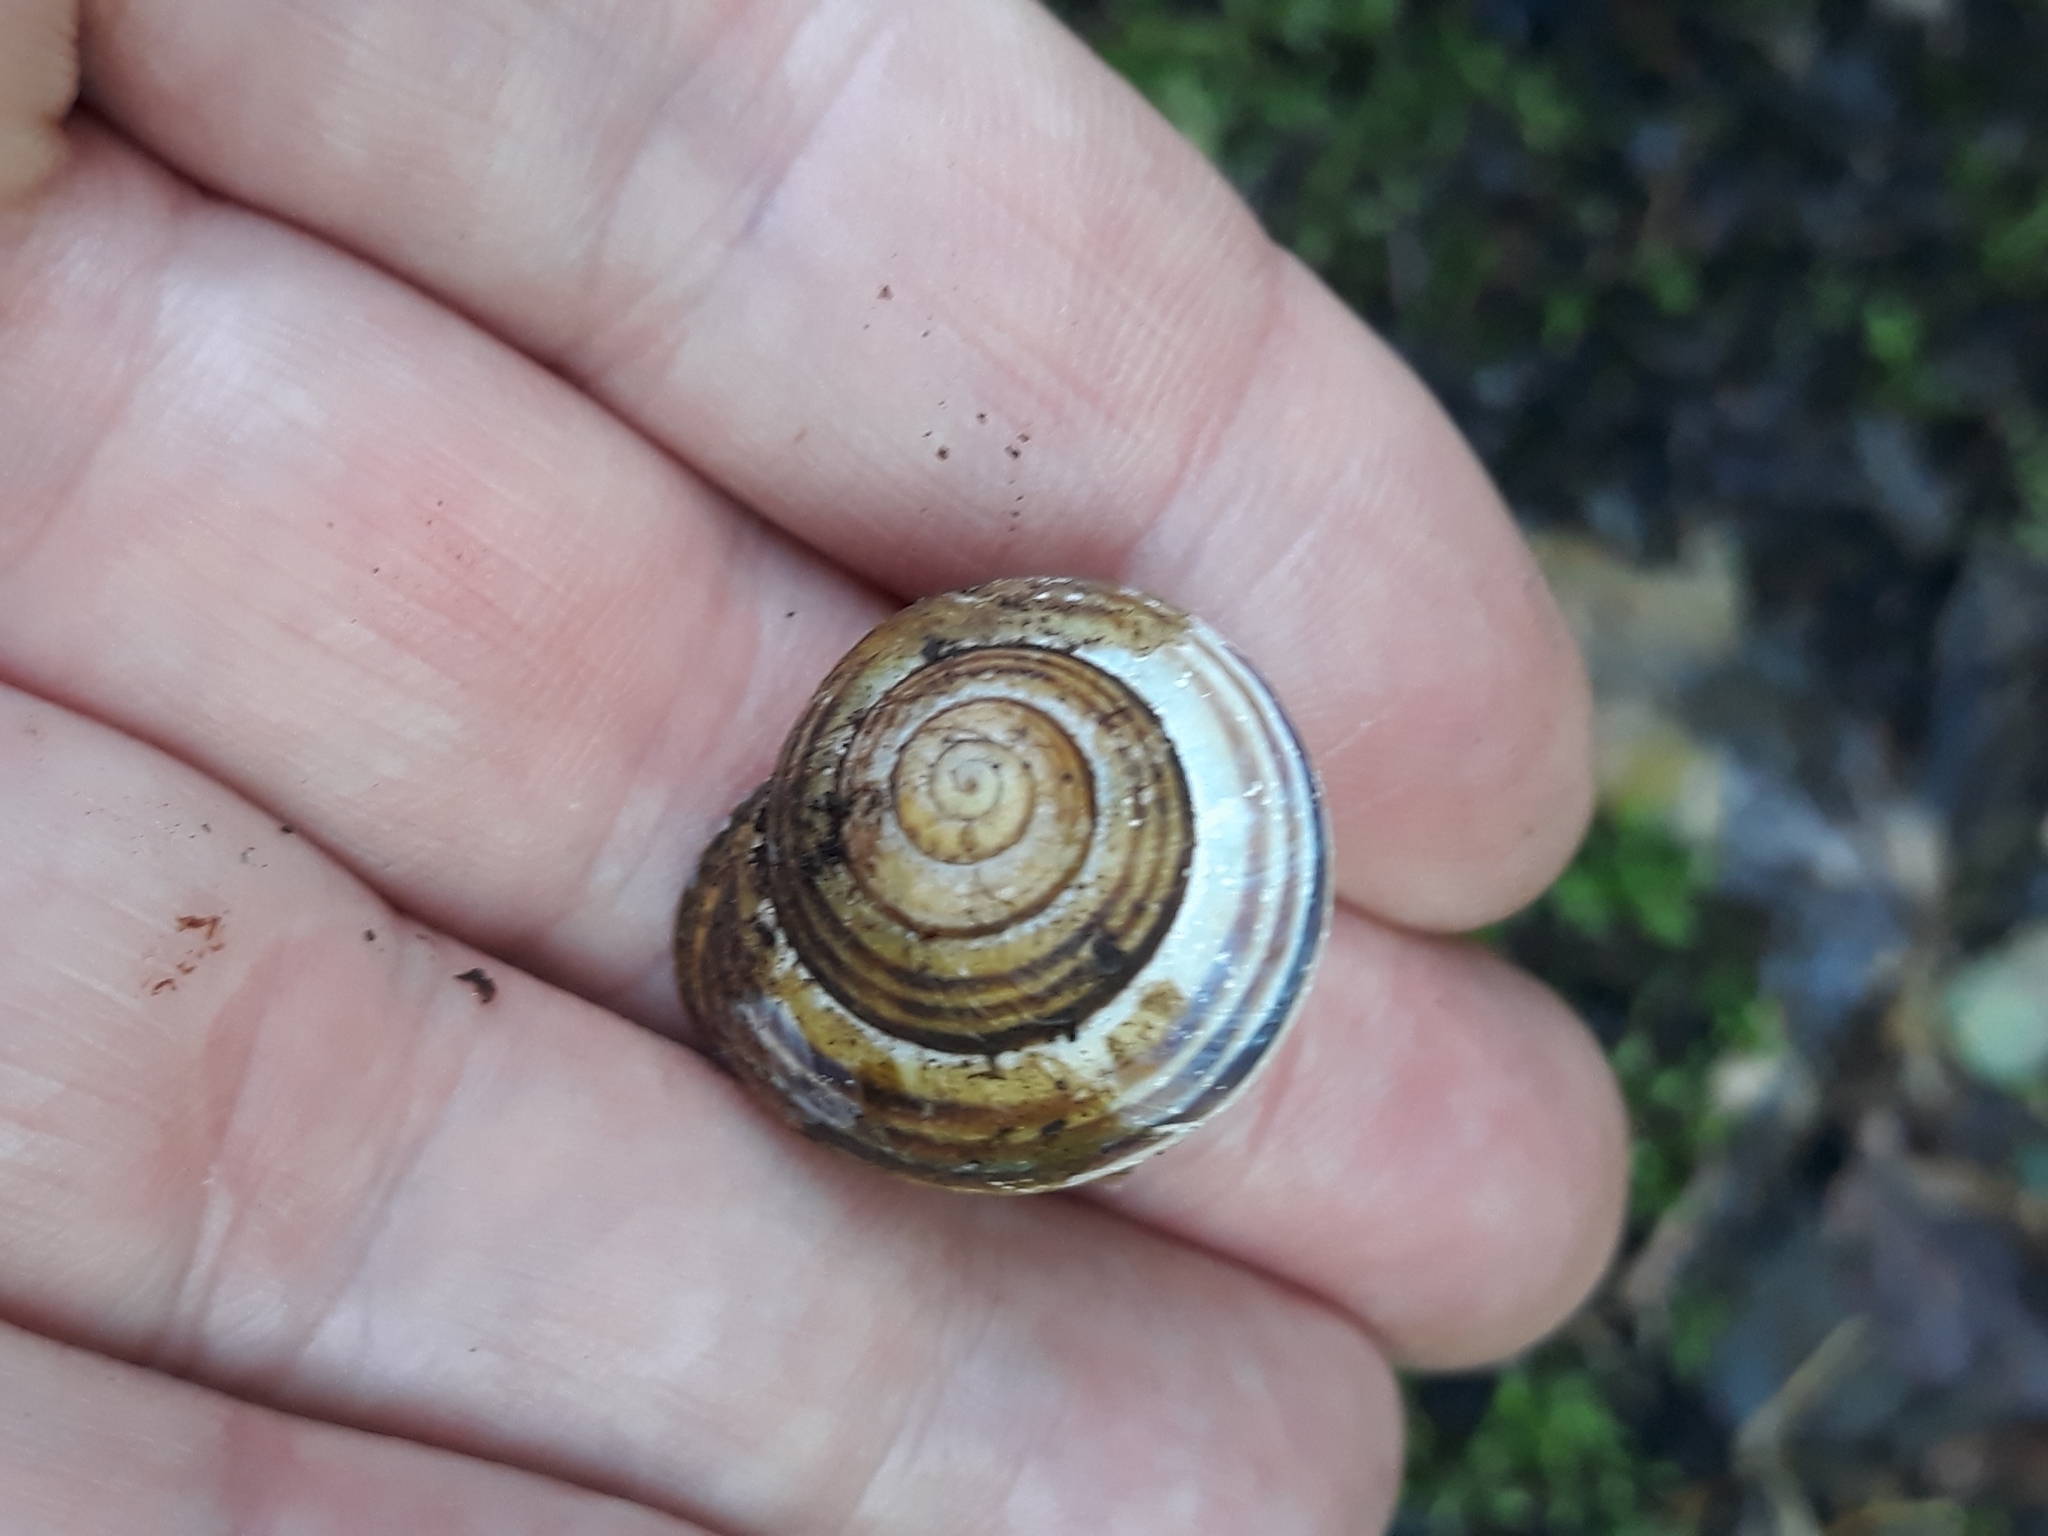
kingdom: Animalia
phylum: Mollusca
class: Gastropoda
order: Stylommatophora
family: Helicidae
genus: Cepaea
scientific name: Cepaea nemoralis
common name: Grovesnail
